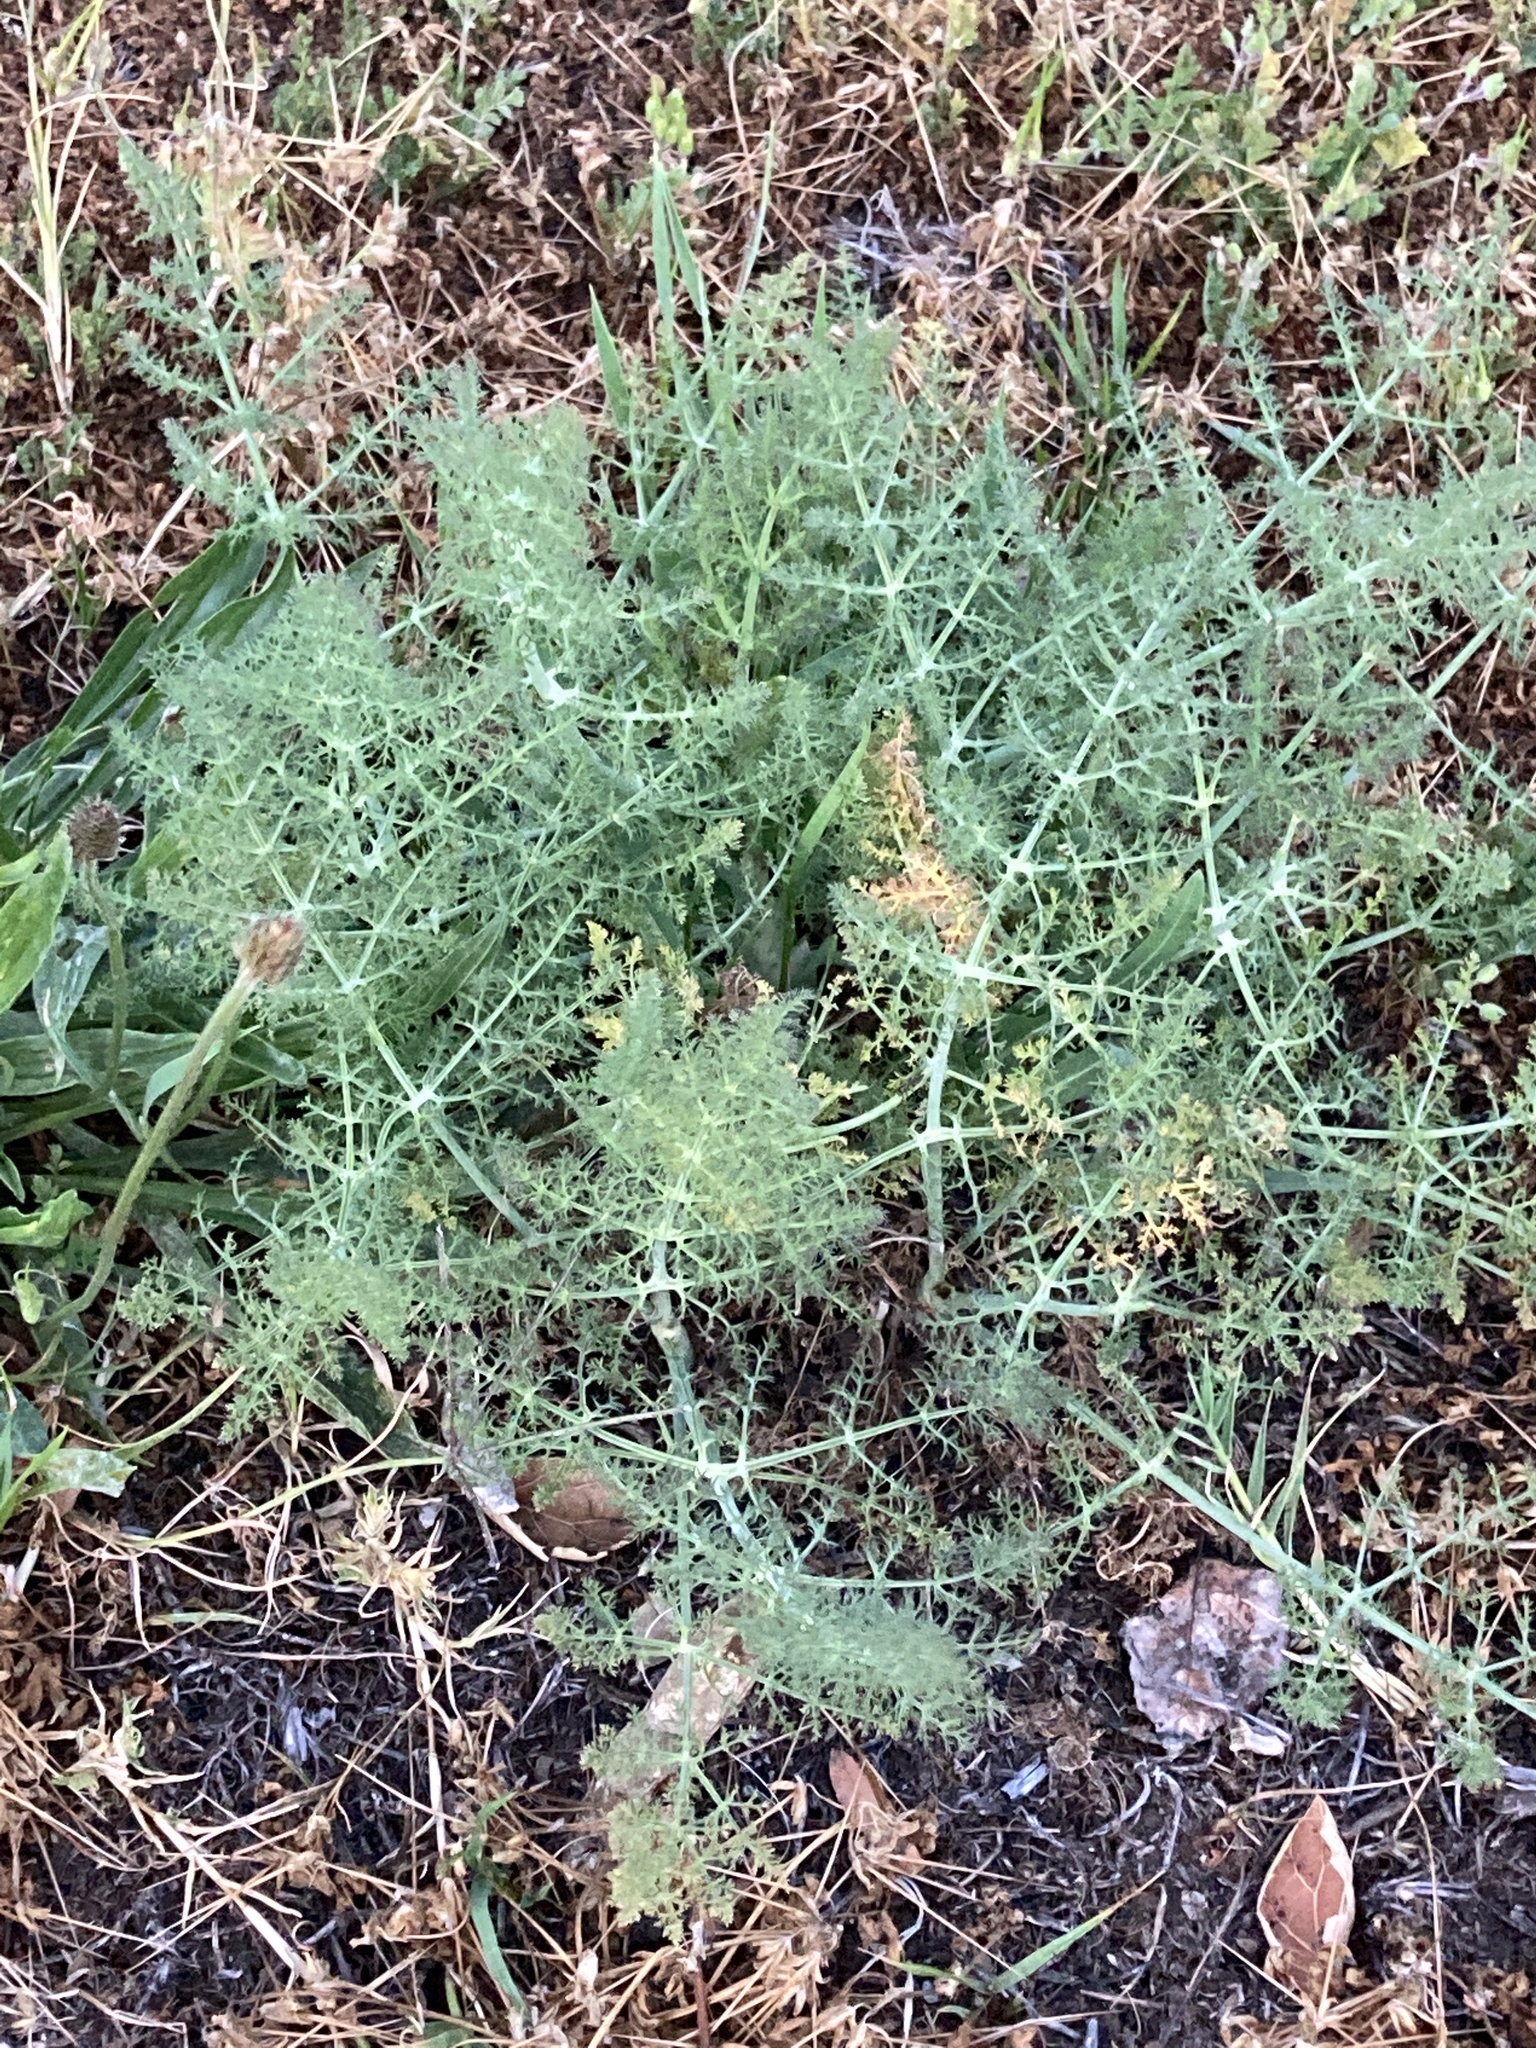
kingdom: Plantae
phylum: Tracheophyta
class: Magnoliopsida
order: Apiales
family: Apiaceae
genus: Foeniculum
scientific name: Foeniculum vulgare
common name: Fennel
